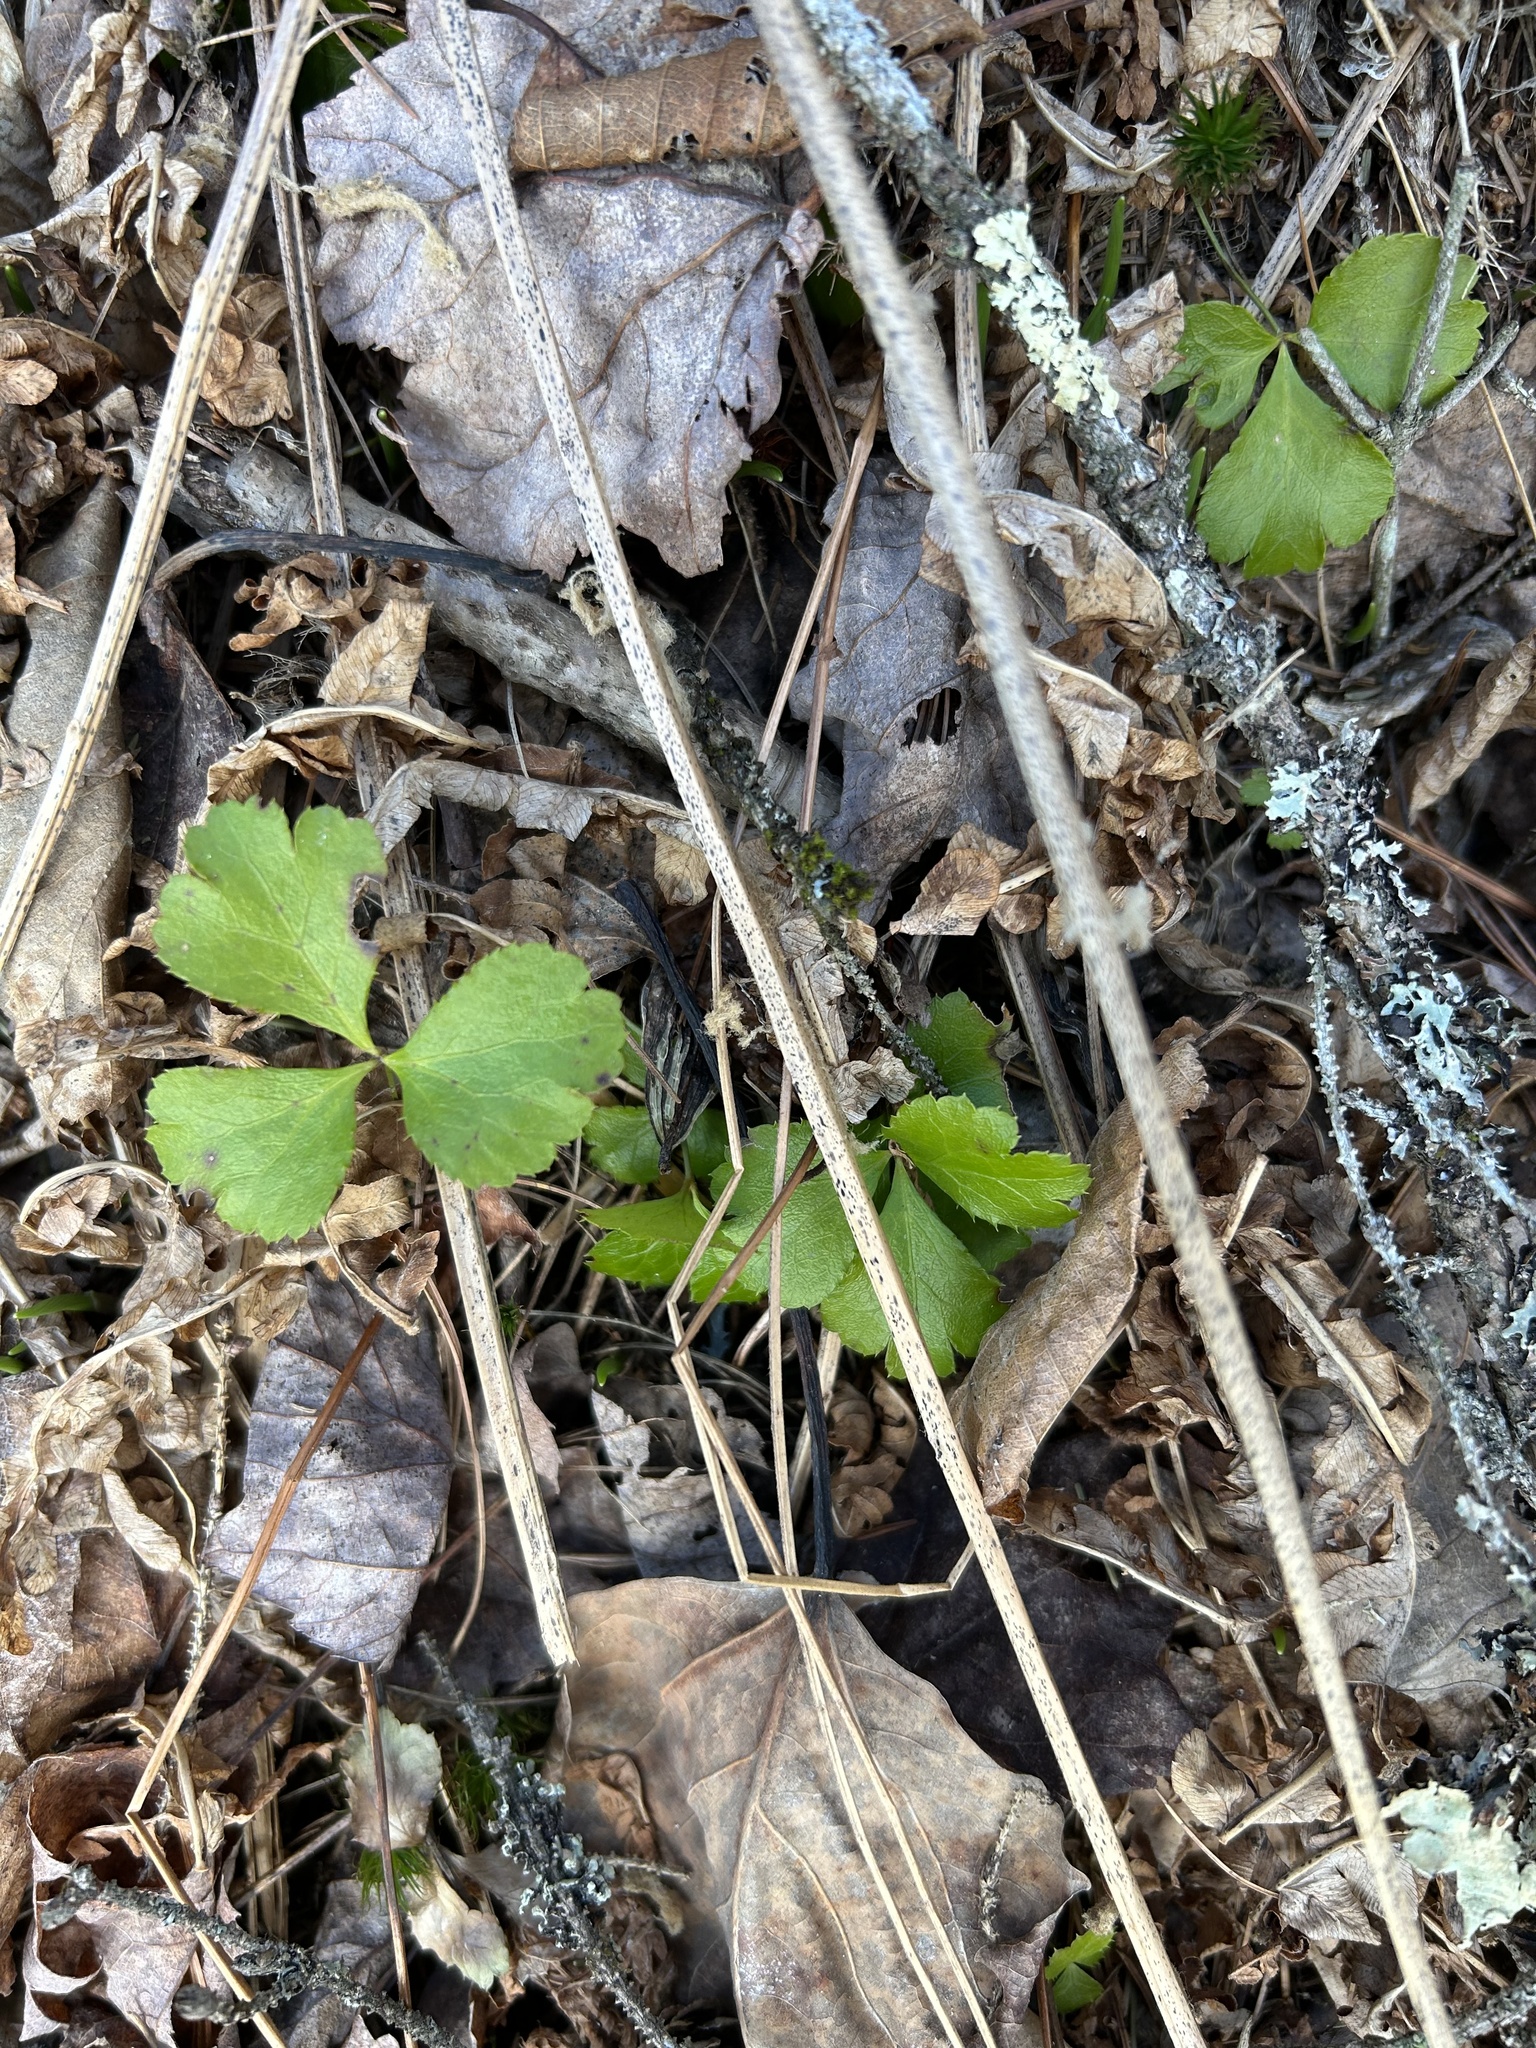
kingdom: Plantae
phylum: Tracheophyta
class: Magnoliopsida
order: Ranunculales
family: Ranunculaceae
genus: Coptis
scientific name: Coptis trifolia
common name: Canker-root
